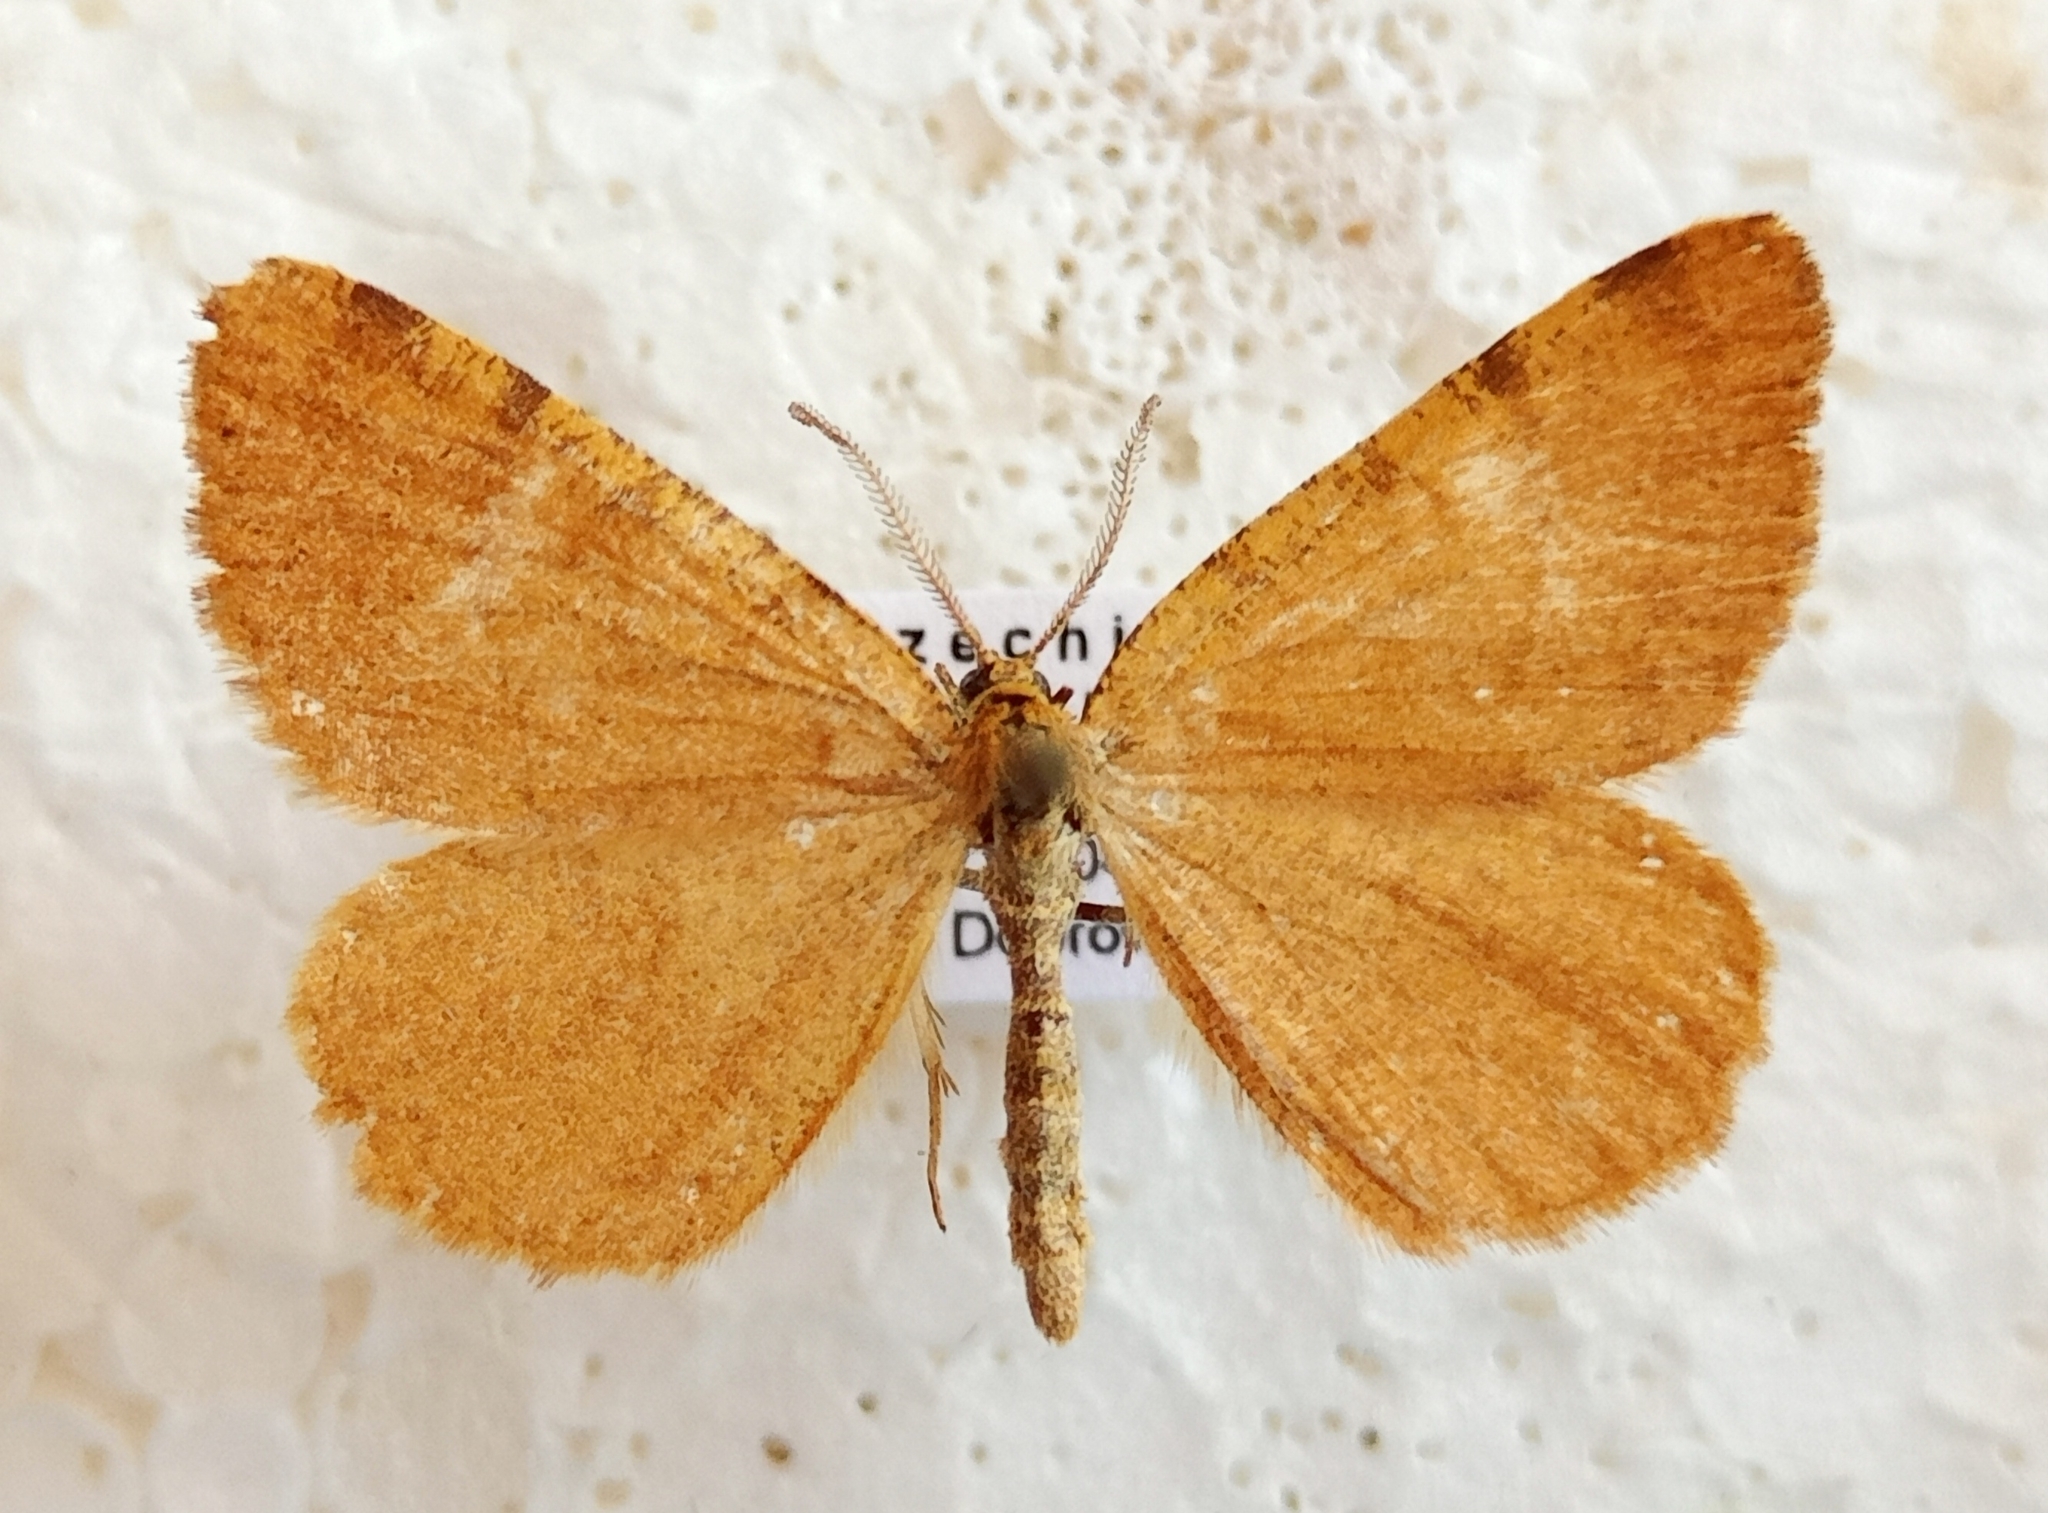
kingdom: Animalia
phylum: Arthropoda
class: Insecta
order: Lepidoptera
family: Geometridae
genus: Macaria
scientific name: Macaria brunneata
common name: Rannoch looper
